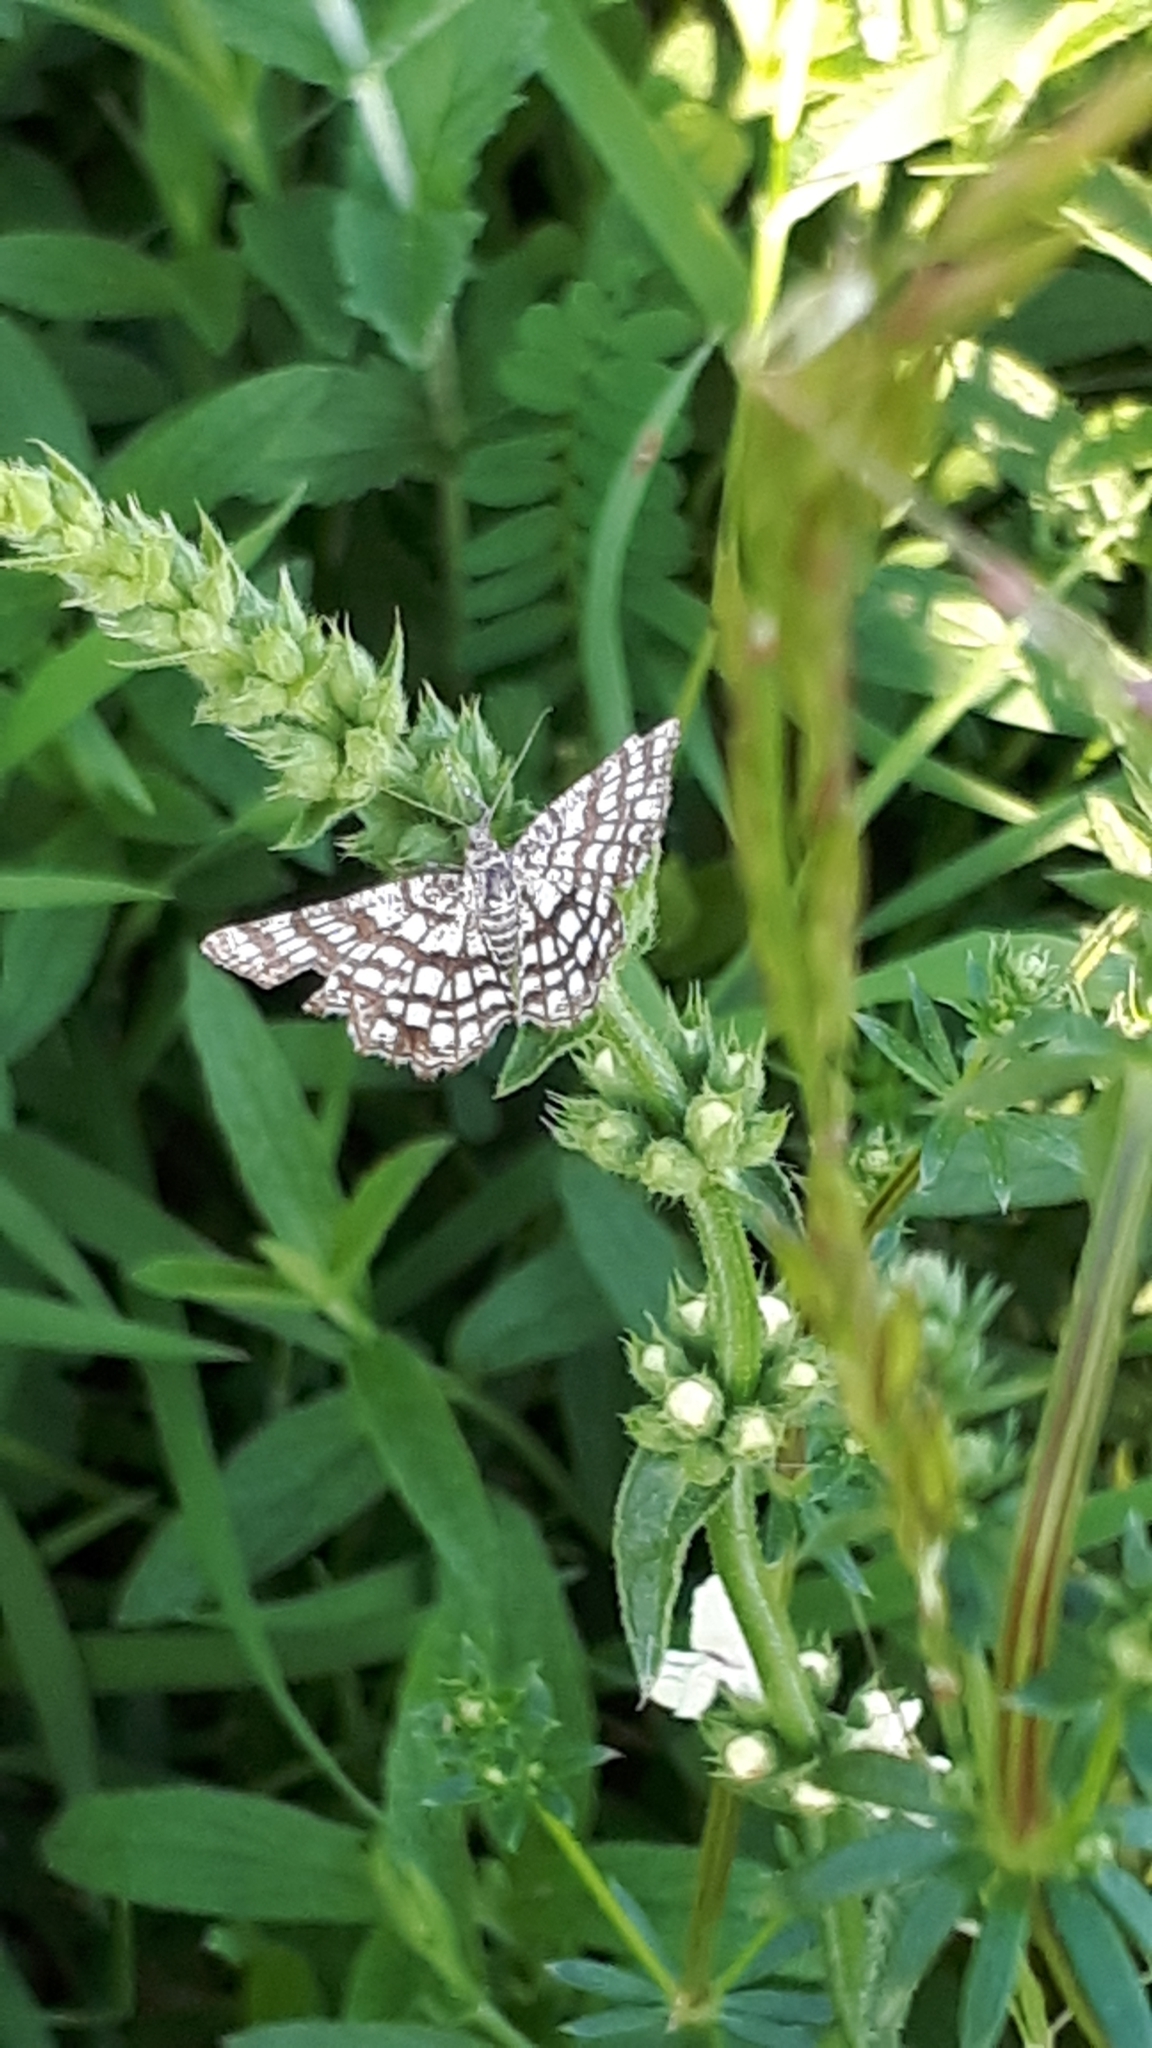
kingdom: Animalia
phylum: Arthropoda
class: Insecta
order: Lepidoptera
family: Geometridae
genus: Chiasmia
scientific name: Chiasmia clathrata
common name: Latticed heath
